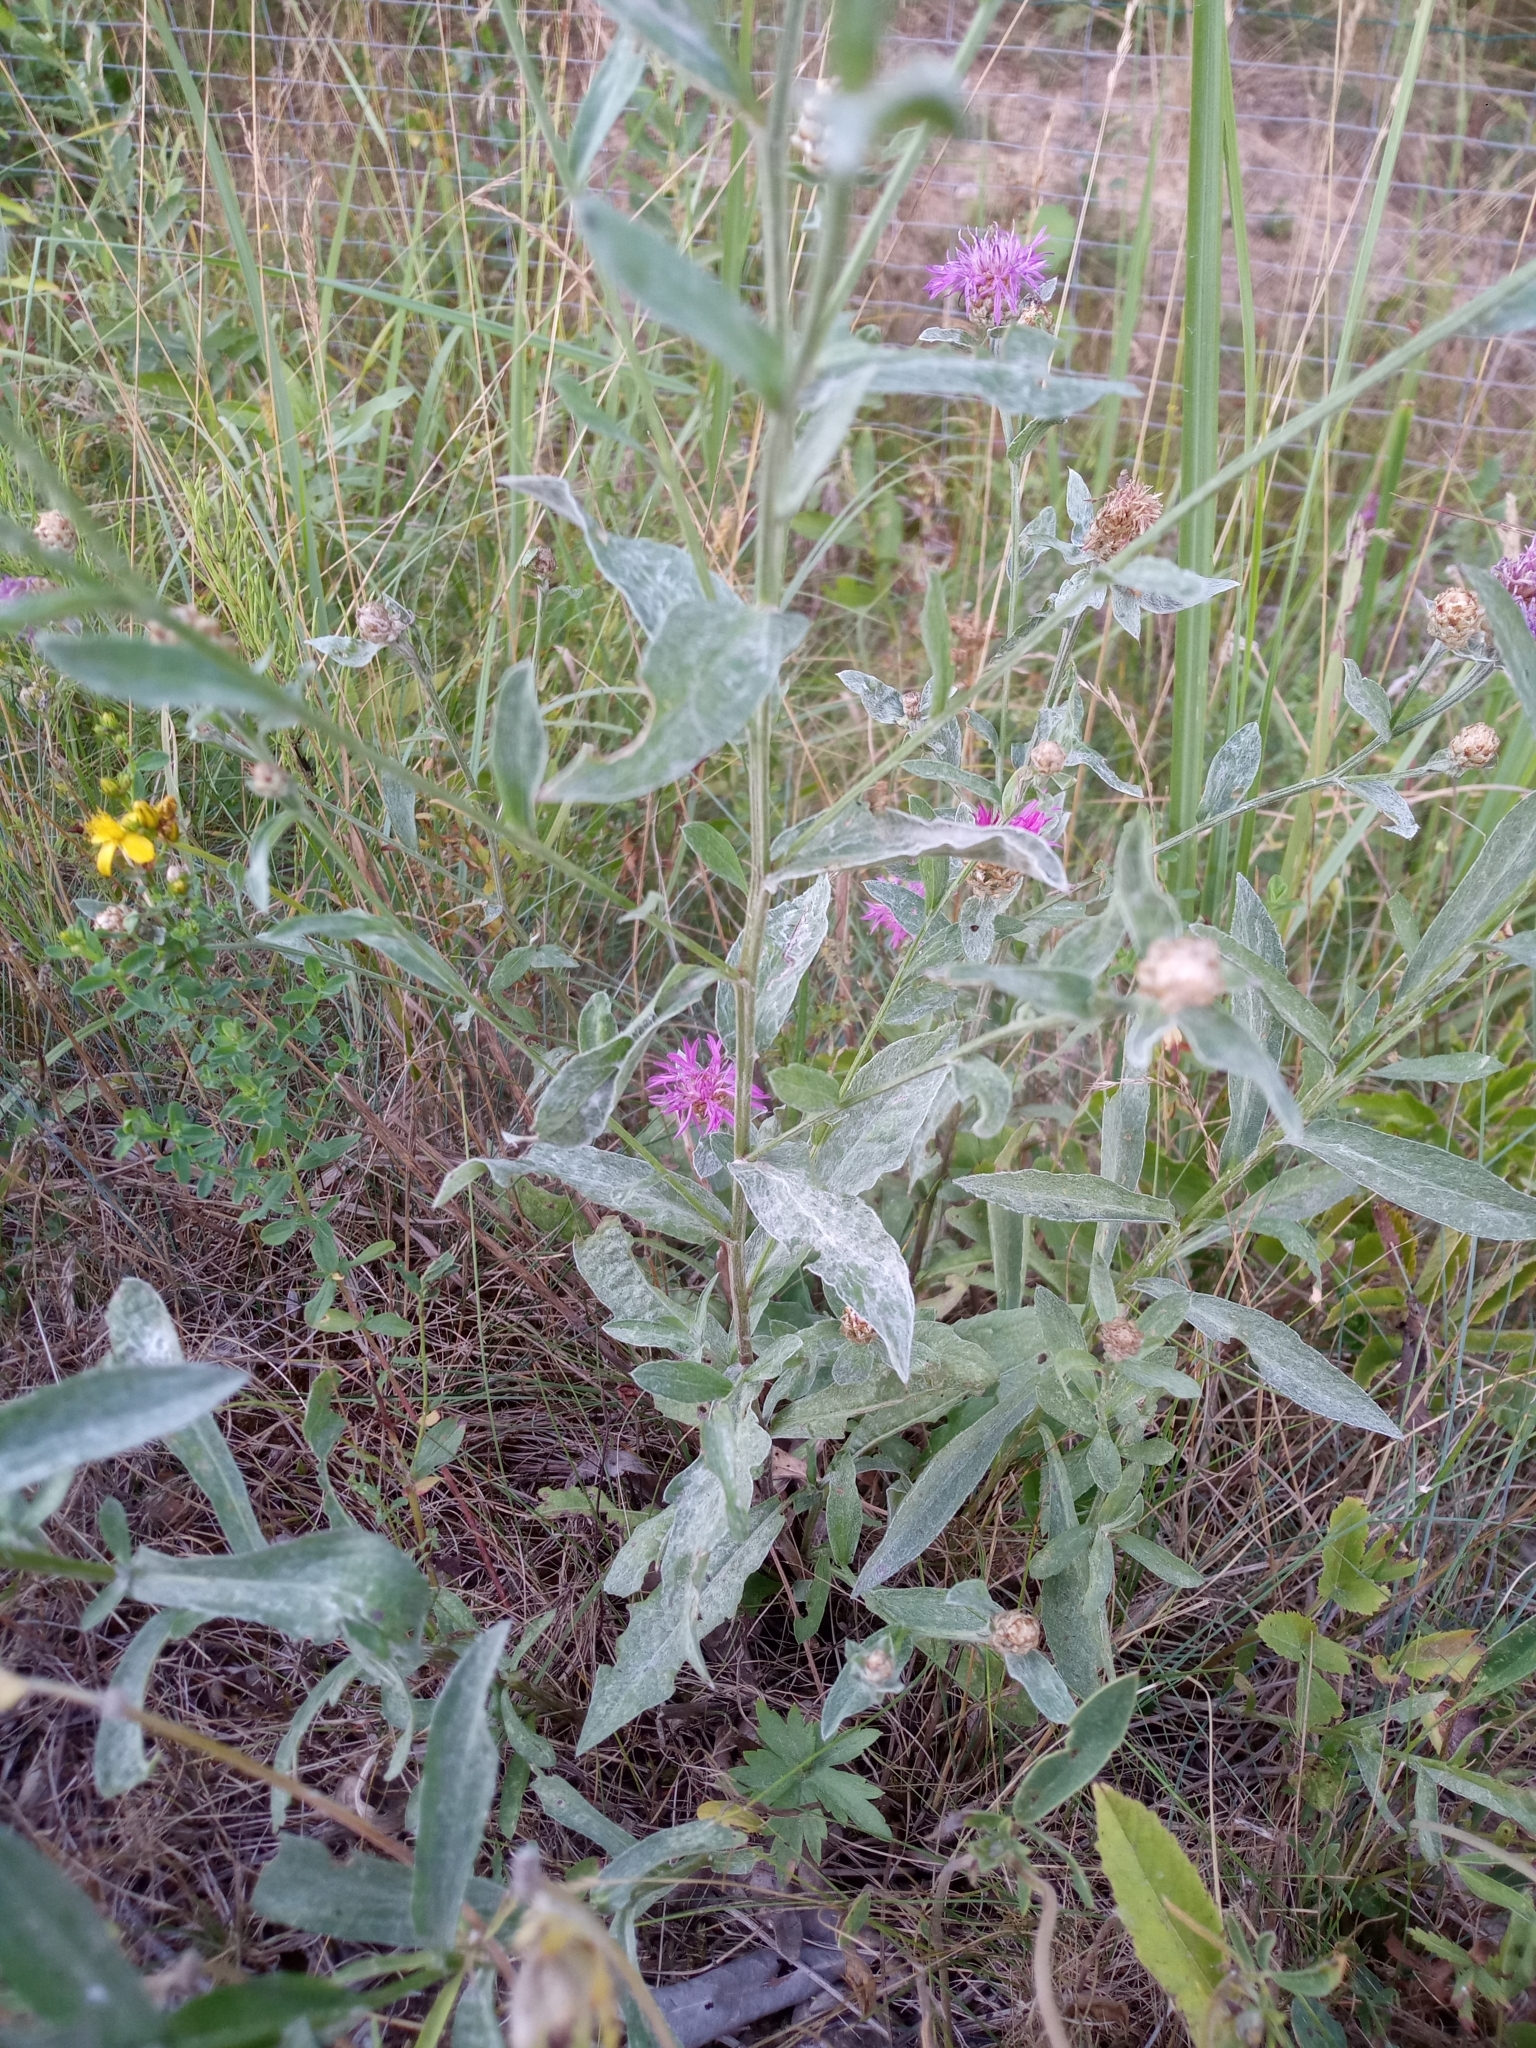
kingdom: Plantae
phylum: Tracheophyta
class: Magnoliopsida
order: Asterales
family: Asteraceae
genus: Centaurea
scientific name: Centaurea jacea
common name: Brown knapweed
